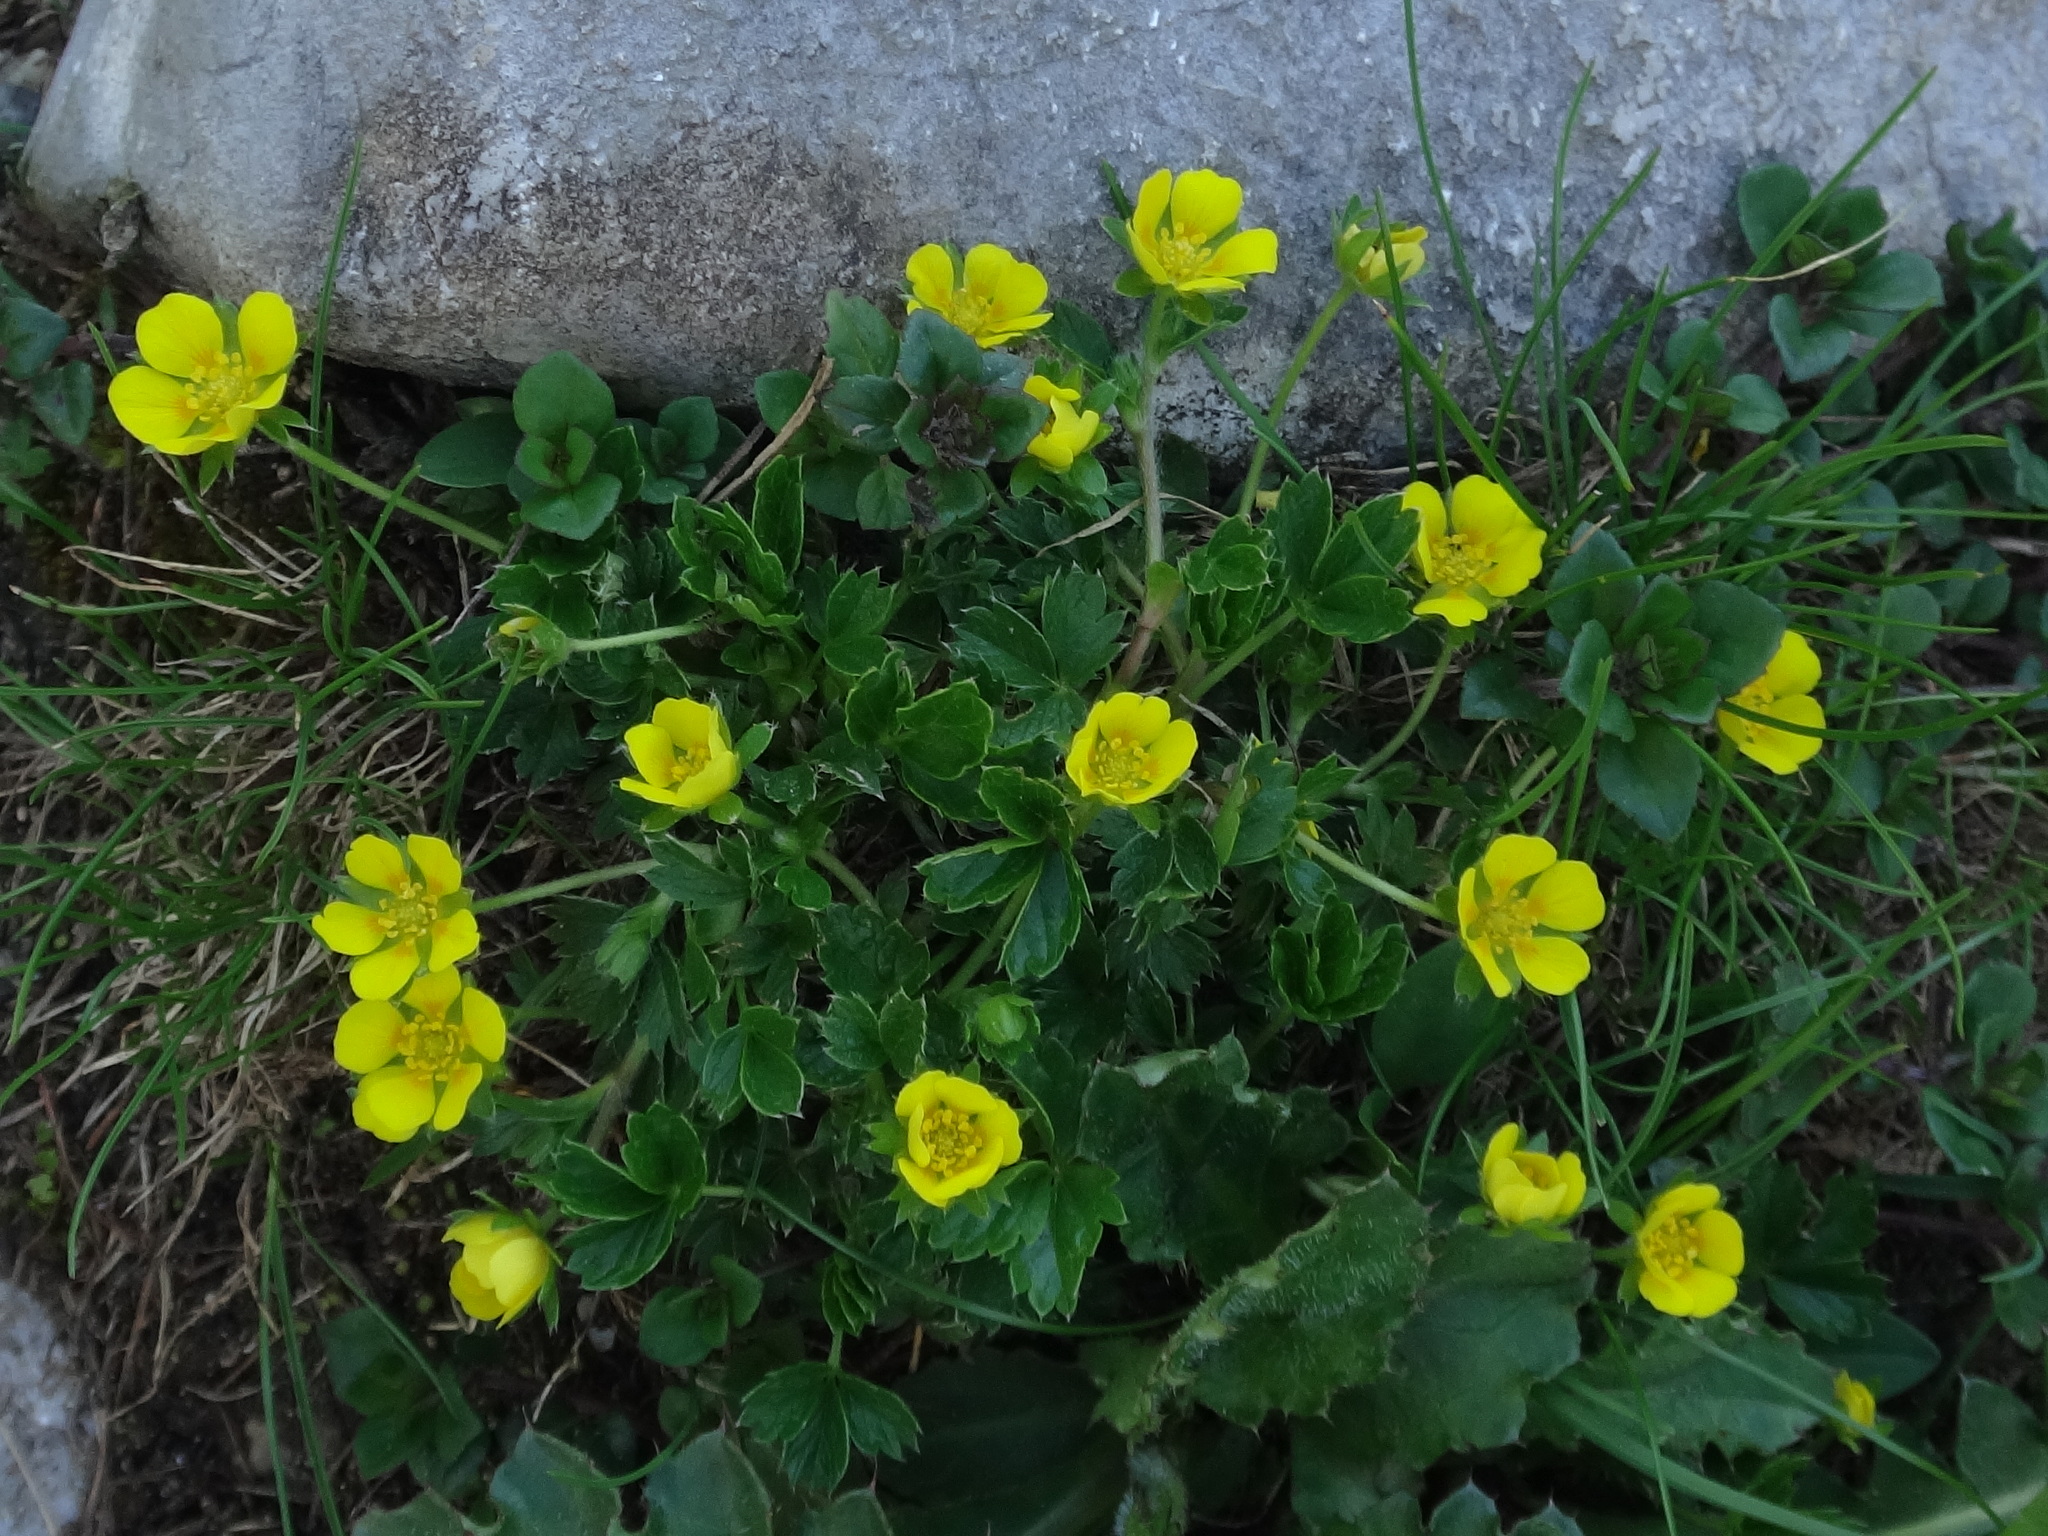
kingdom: Plantae
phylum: Tracheophyta
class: Magnoliopsida
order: Rosales
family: Rosaceae
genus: Potentilla
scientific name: Potentilla brauneana
